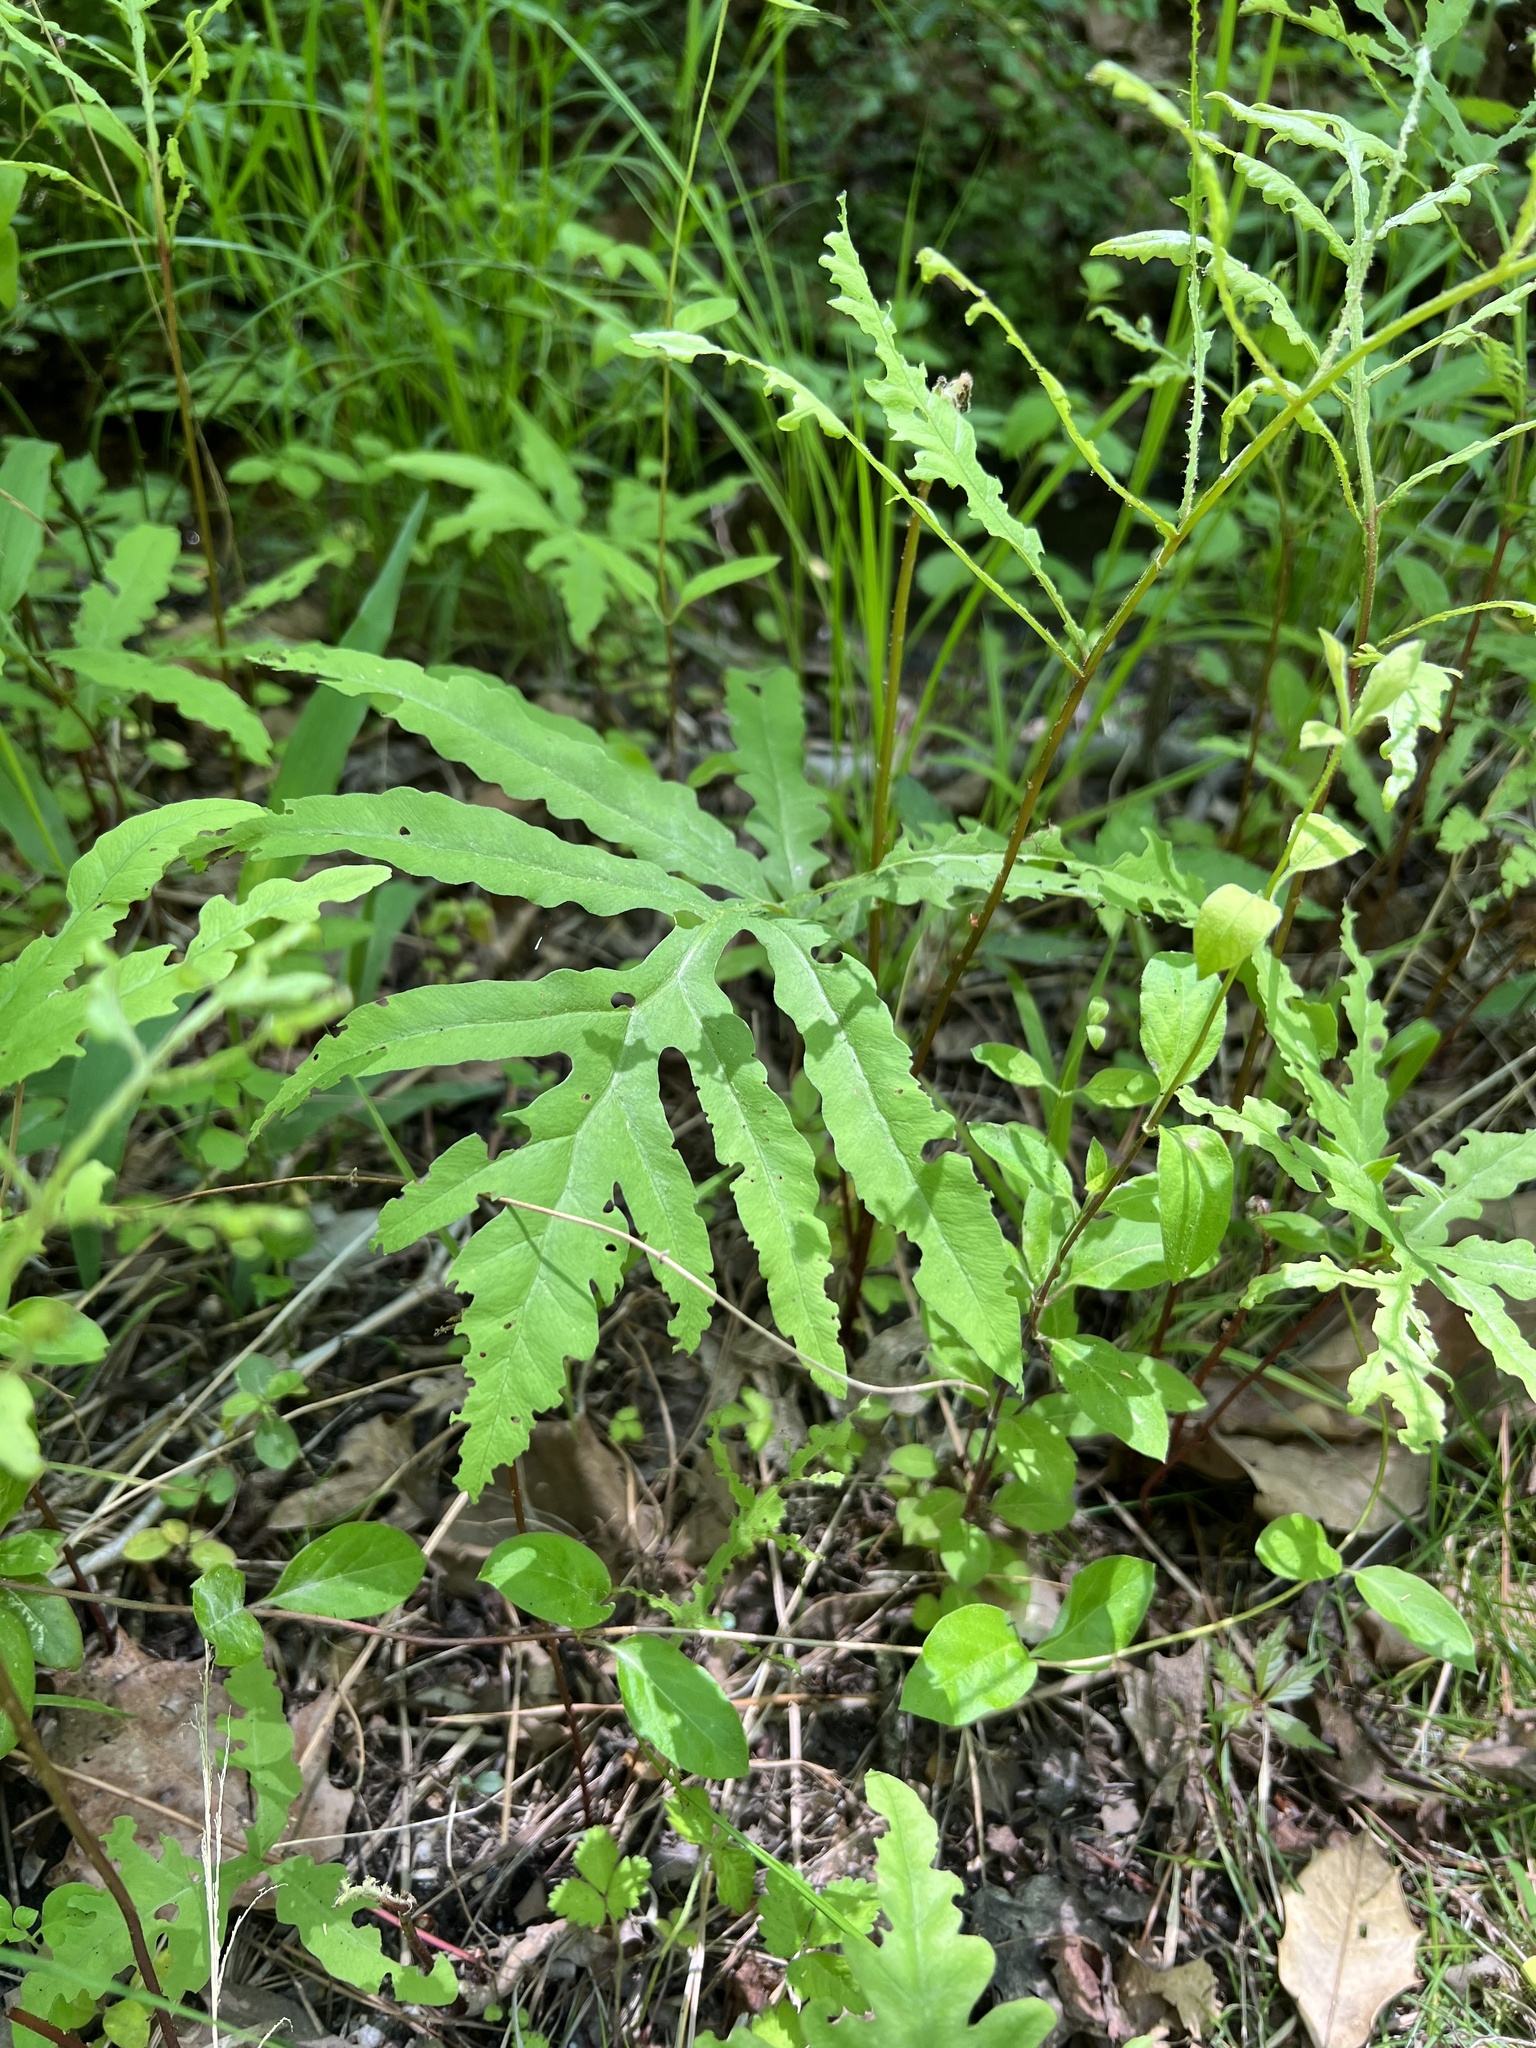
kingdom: Plantae
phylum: Tracheophyta
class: Polypodiopsida
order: Polypodiales
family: Onocleaceae
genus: Onoclea
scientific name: Onoclea sensibilis
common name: Sensitive fern
